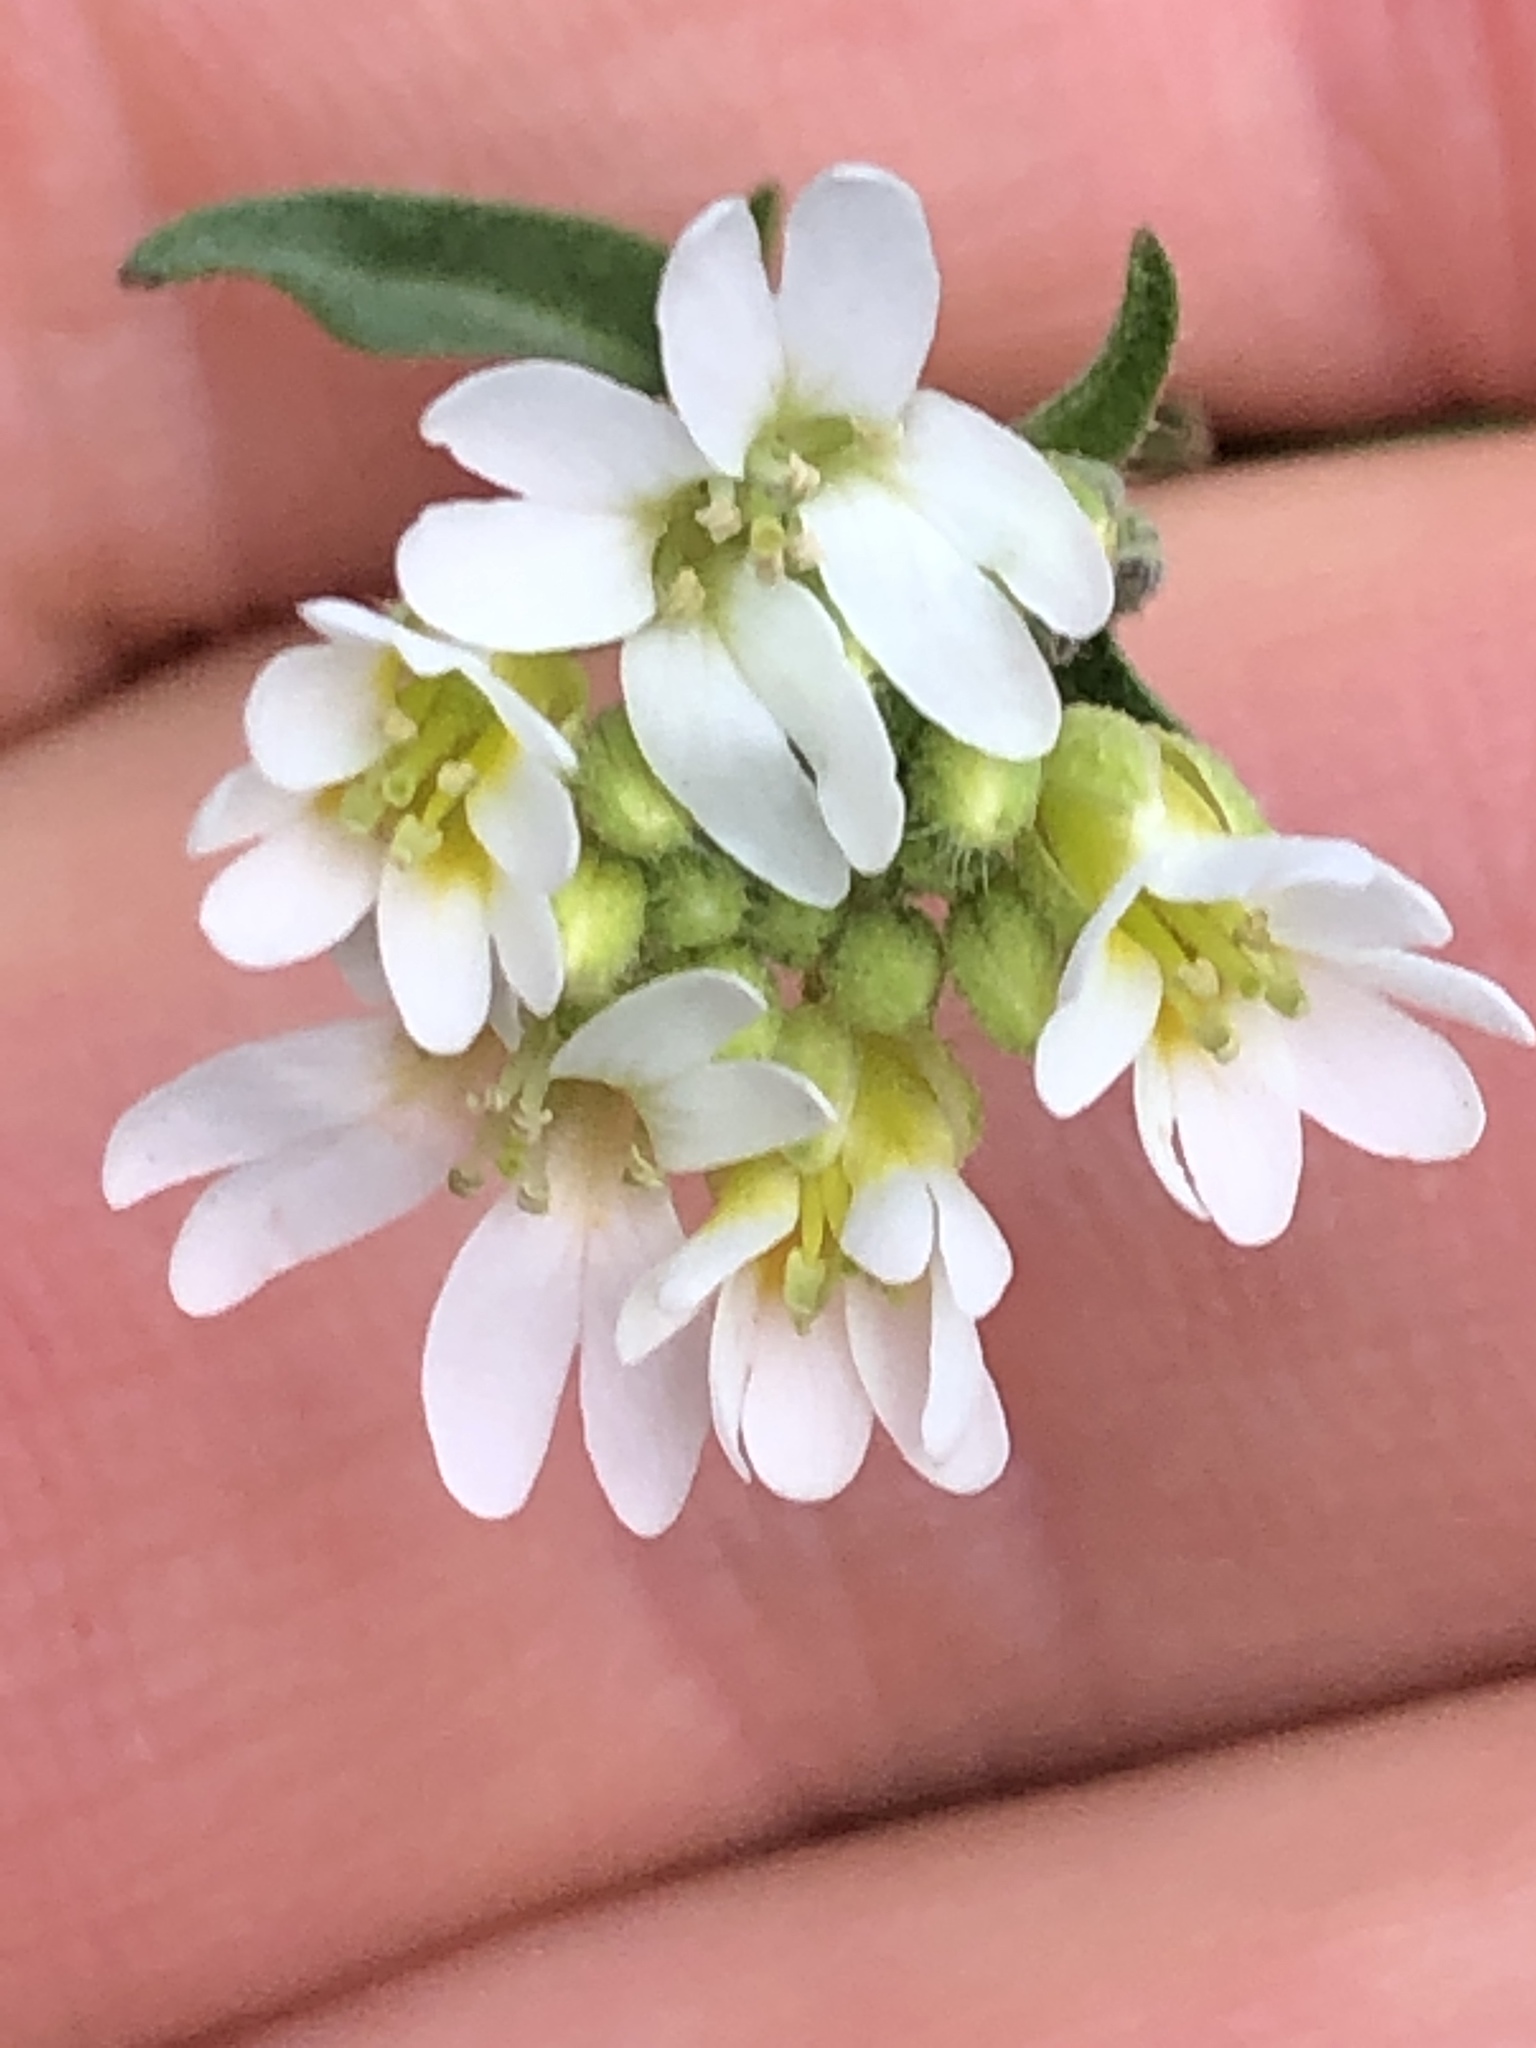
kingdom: Plantae
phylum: Tracheophyta
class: Magnoliopsida
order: Brassicales
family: Brassicaceae
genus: Berteroa
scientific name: Berteroa incana
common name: Hoary alison
